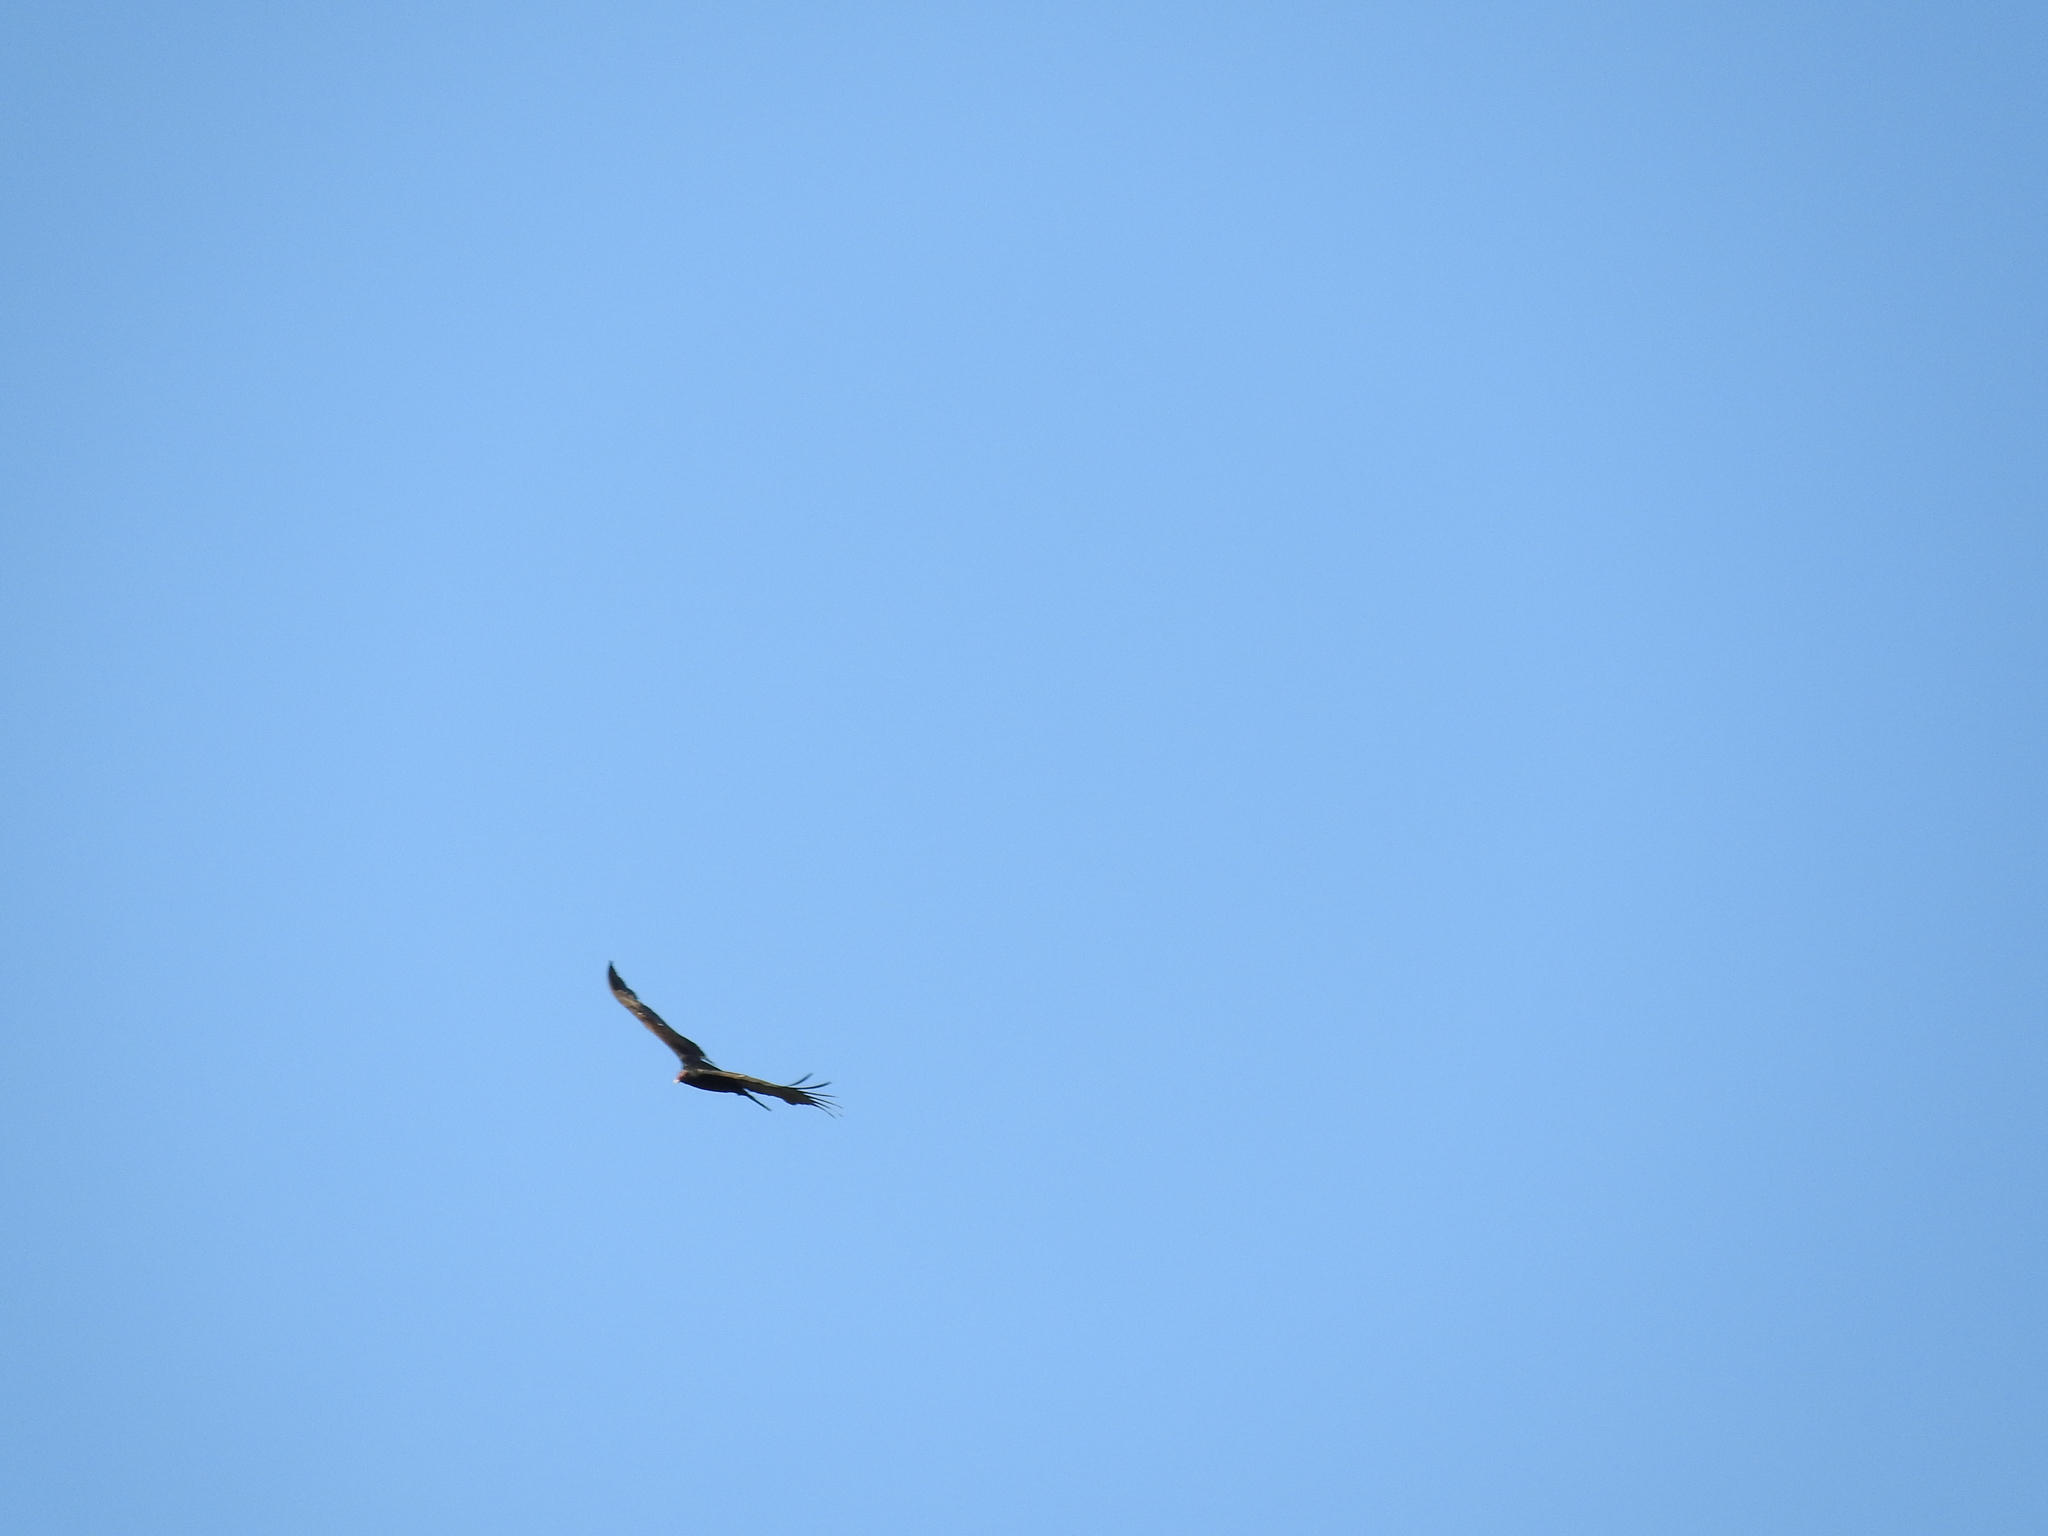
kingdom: Animalia
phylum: Chordata
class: Aves
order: Accipitriformes
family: Cathartidae
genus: Cathartes
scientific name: Cathartes aura
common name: Turkey vulture
